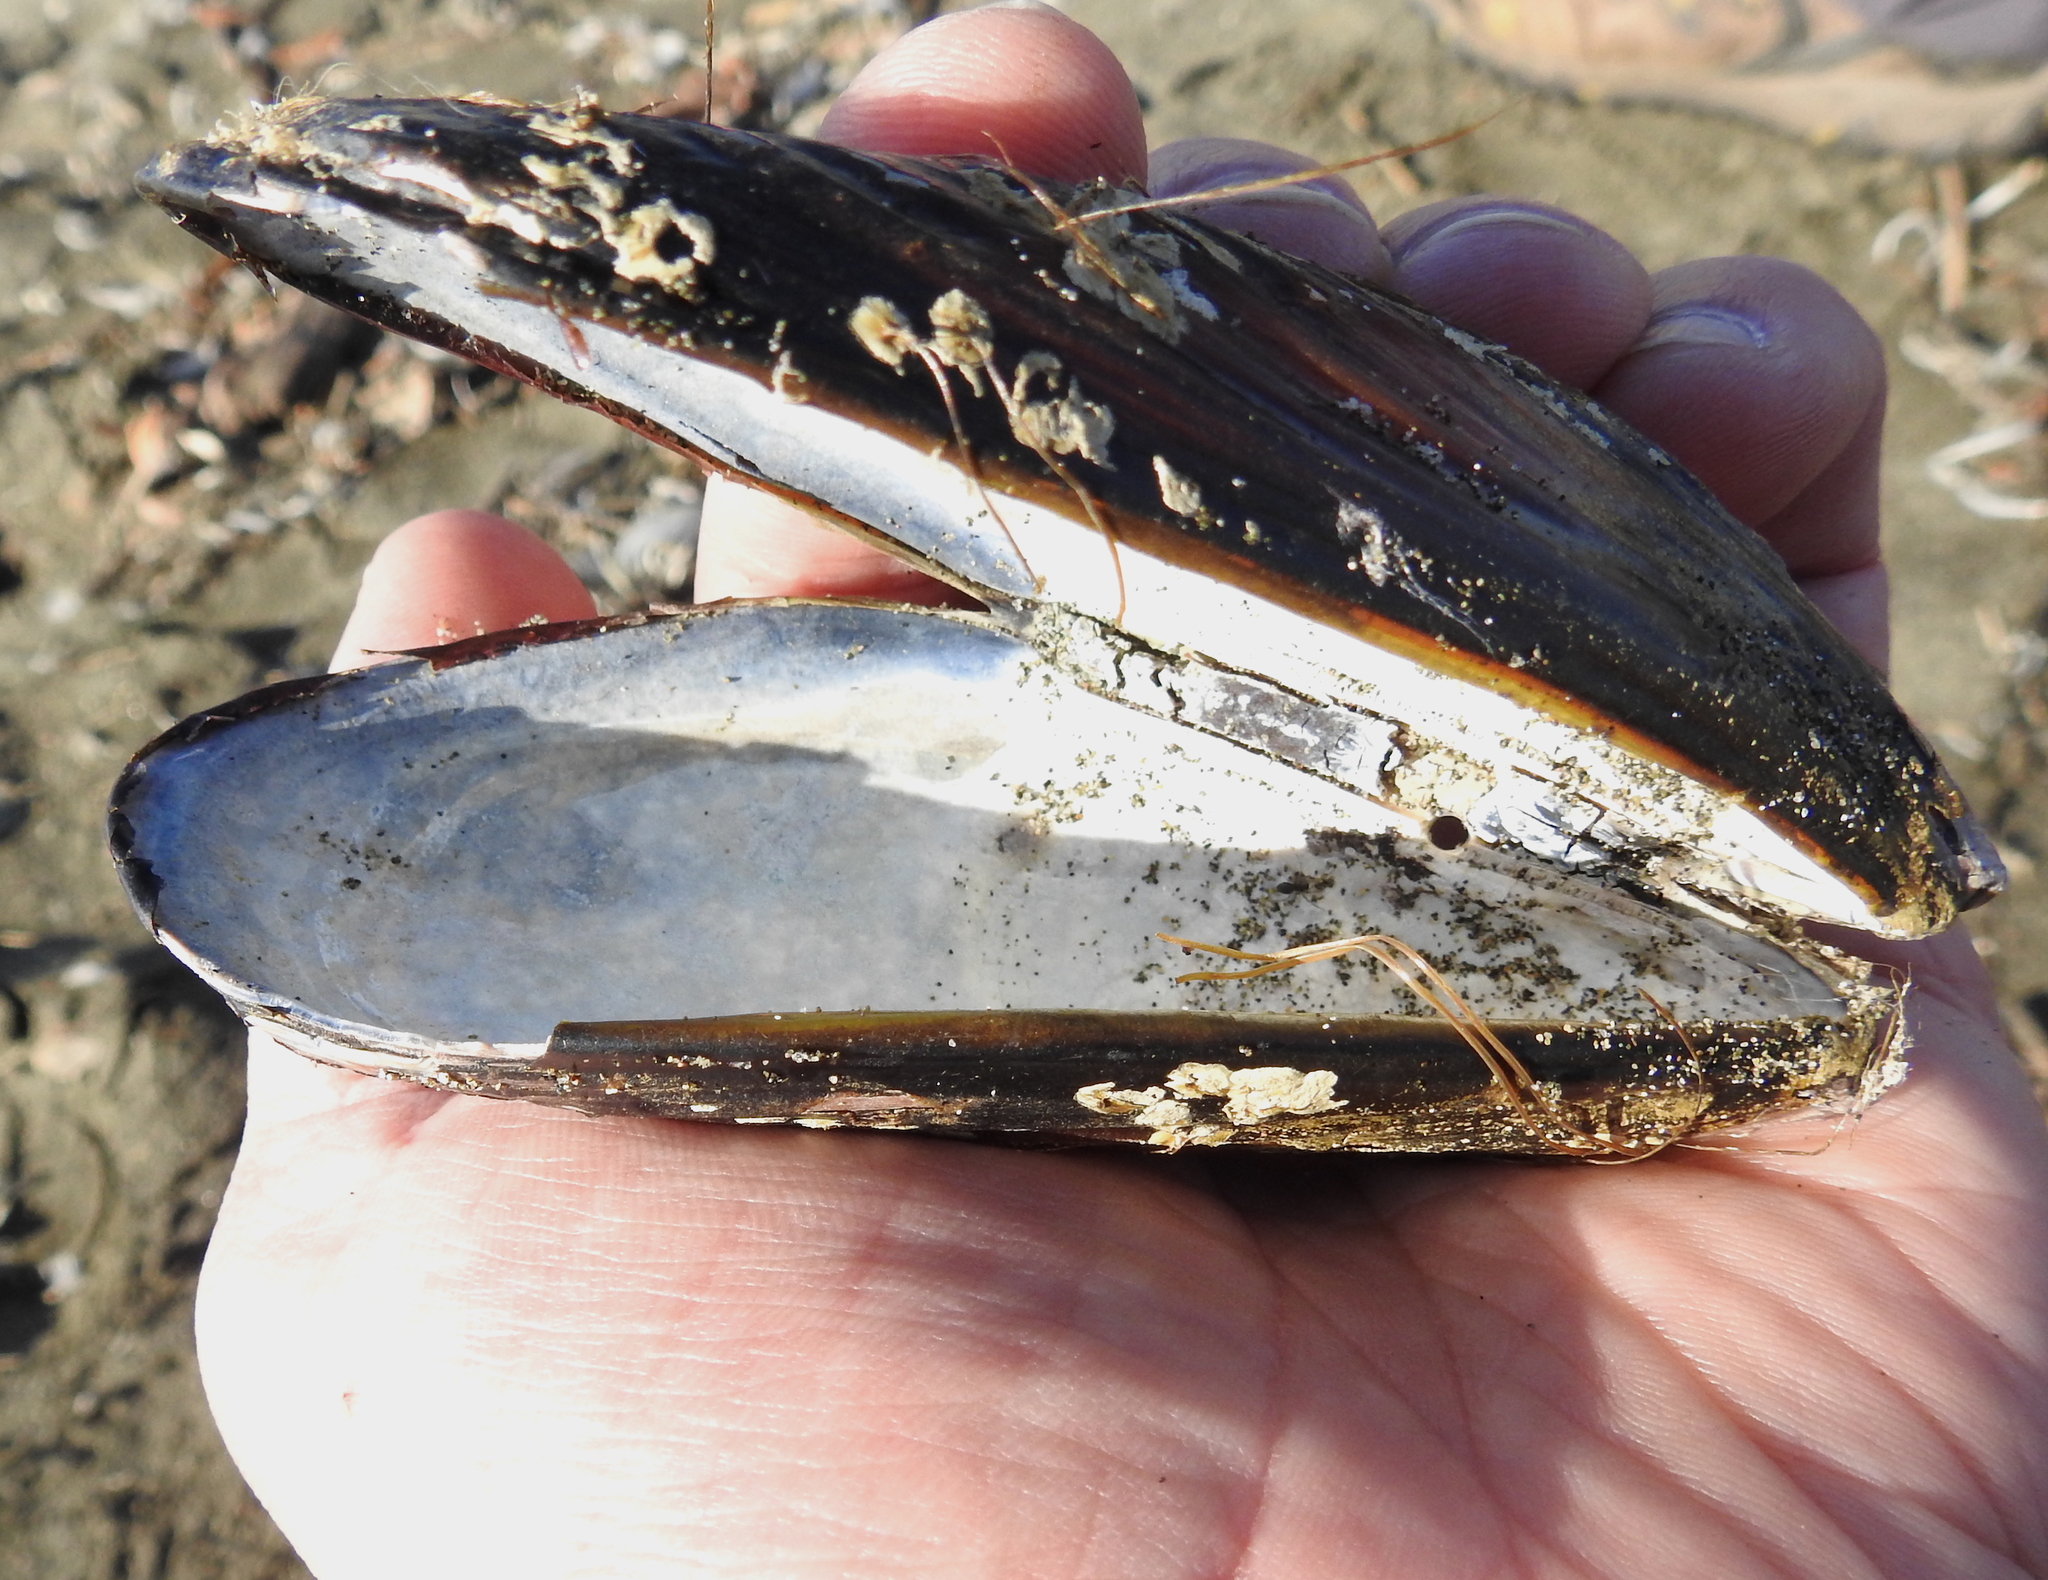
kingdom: Animalia
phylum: Mollusca
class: Bivalvia
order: Mytilida
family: Mytilidae
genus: Mytilus
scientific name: Mytilus californianus
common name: California mussel
